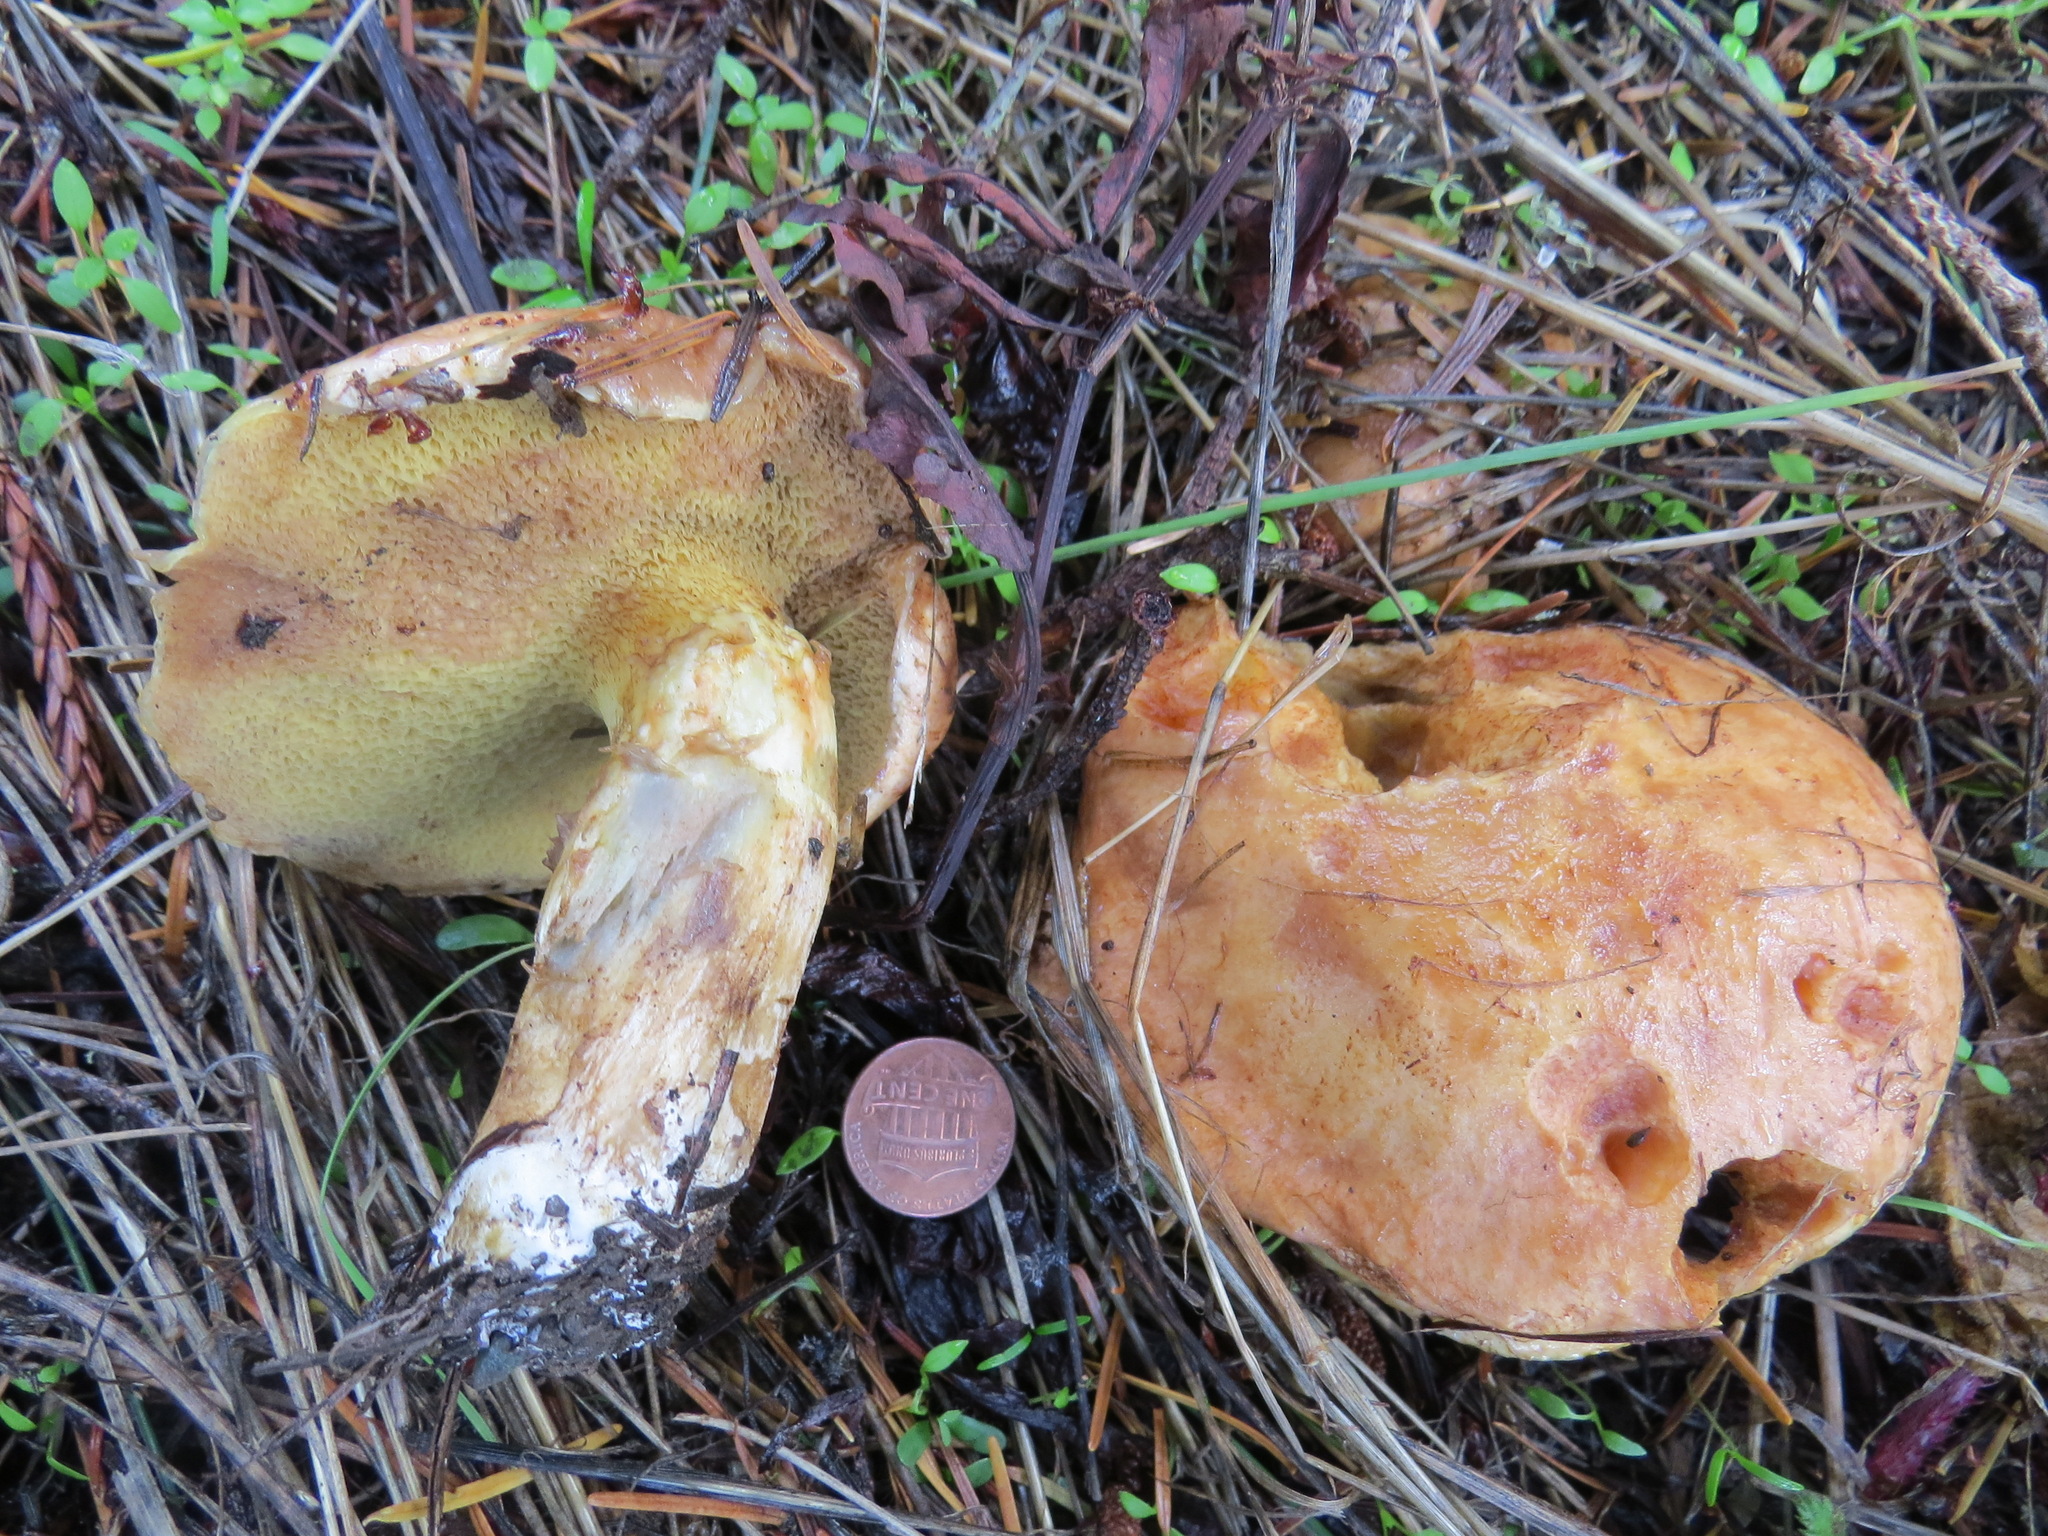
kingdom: Fungi
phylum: Basidiomycota
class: Agaricomycetes
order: Boletales
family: Suillaceae
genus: Suillus
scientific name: Suillus caerulescens
